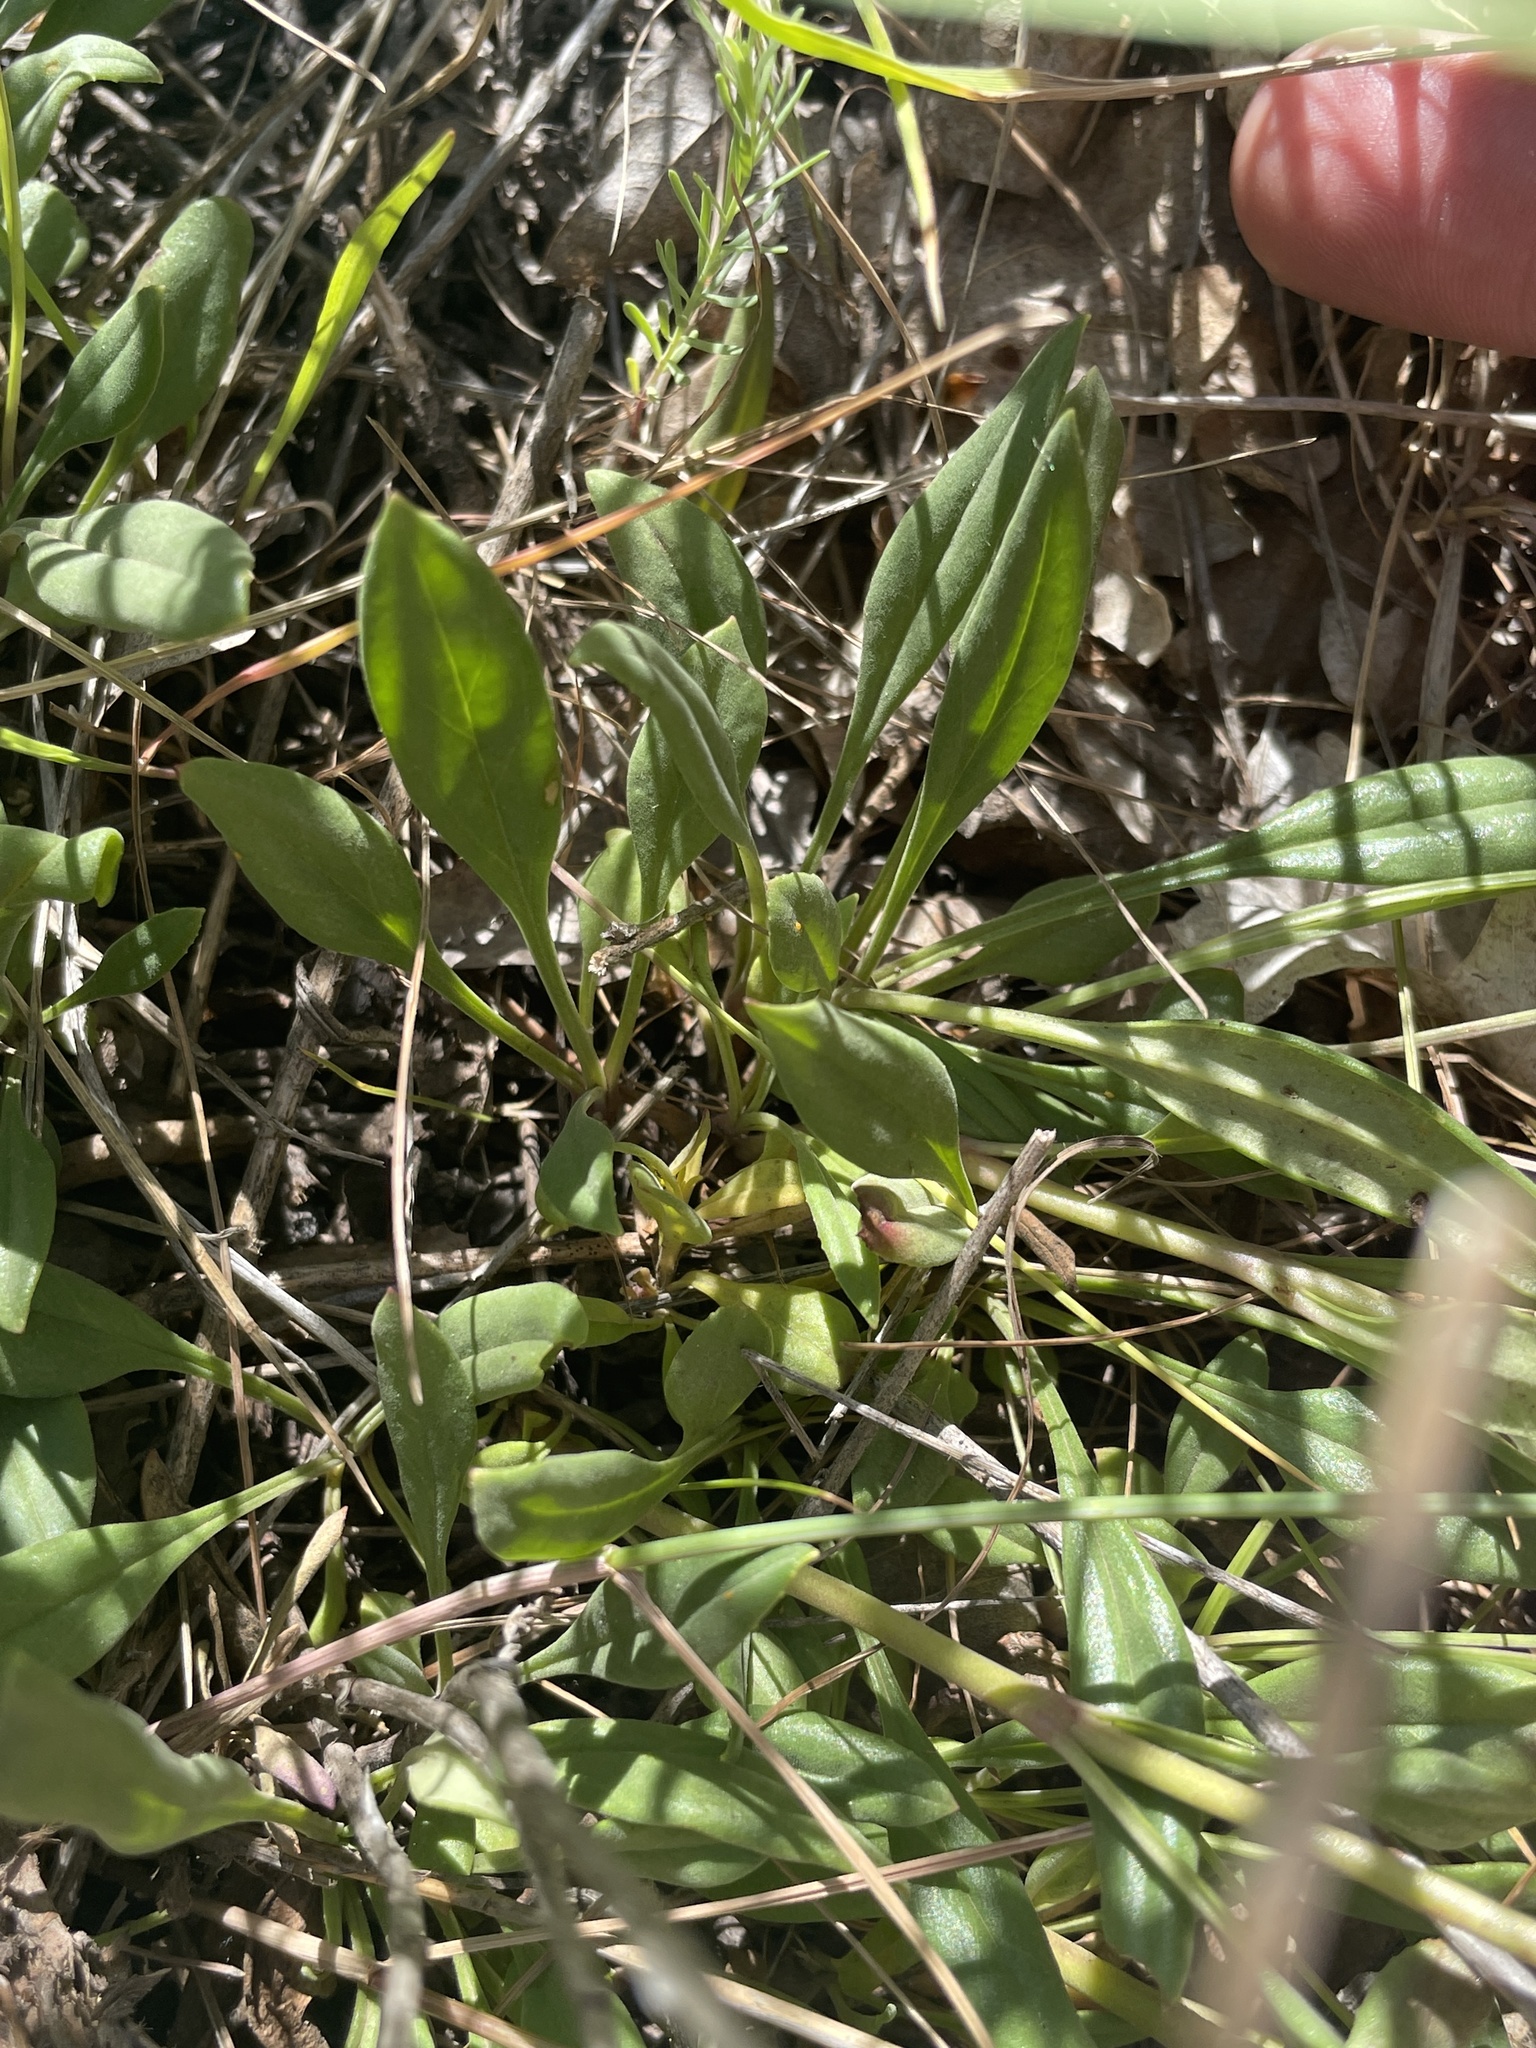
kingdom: Plantae
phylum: Tracheophyta
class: Magnoliopsida
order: Lamiales
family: Plantaginaceae
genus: Penstemon
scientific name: Penstemon humilis
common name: Low penstemon
